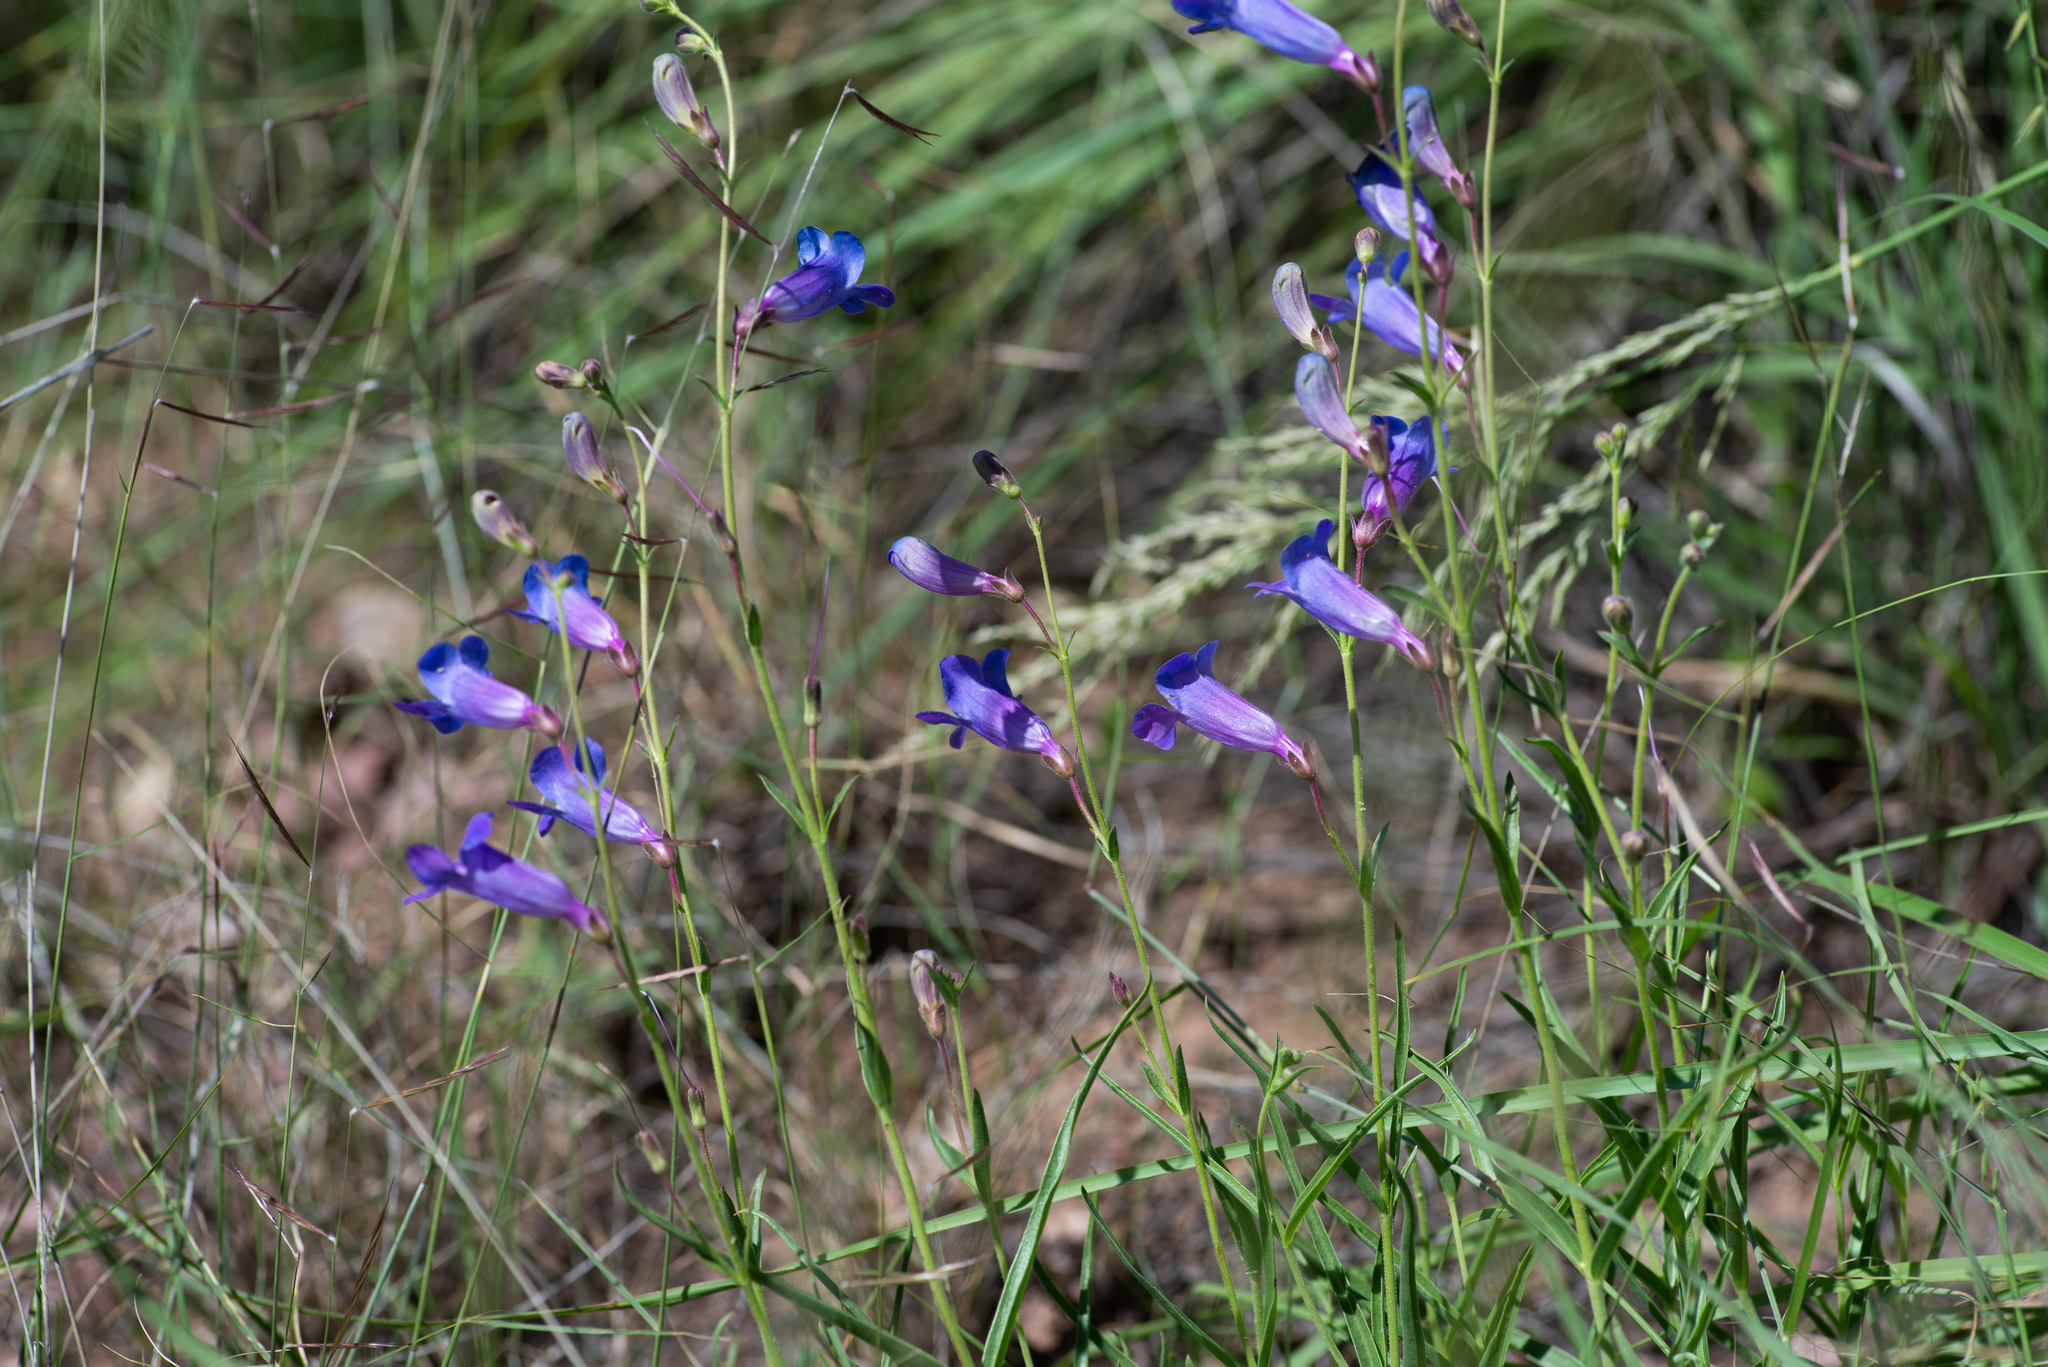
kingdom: Plantae
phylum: Tracheophyta
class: Magnoliopsida
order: Lamiales
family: Plantaginaceae
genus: Penstemon
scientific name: Penstemon dasyphyllus
